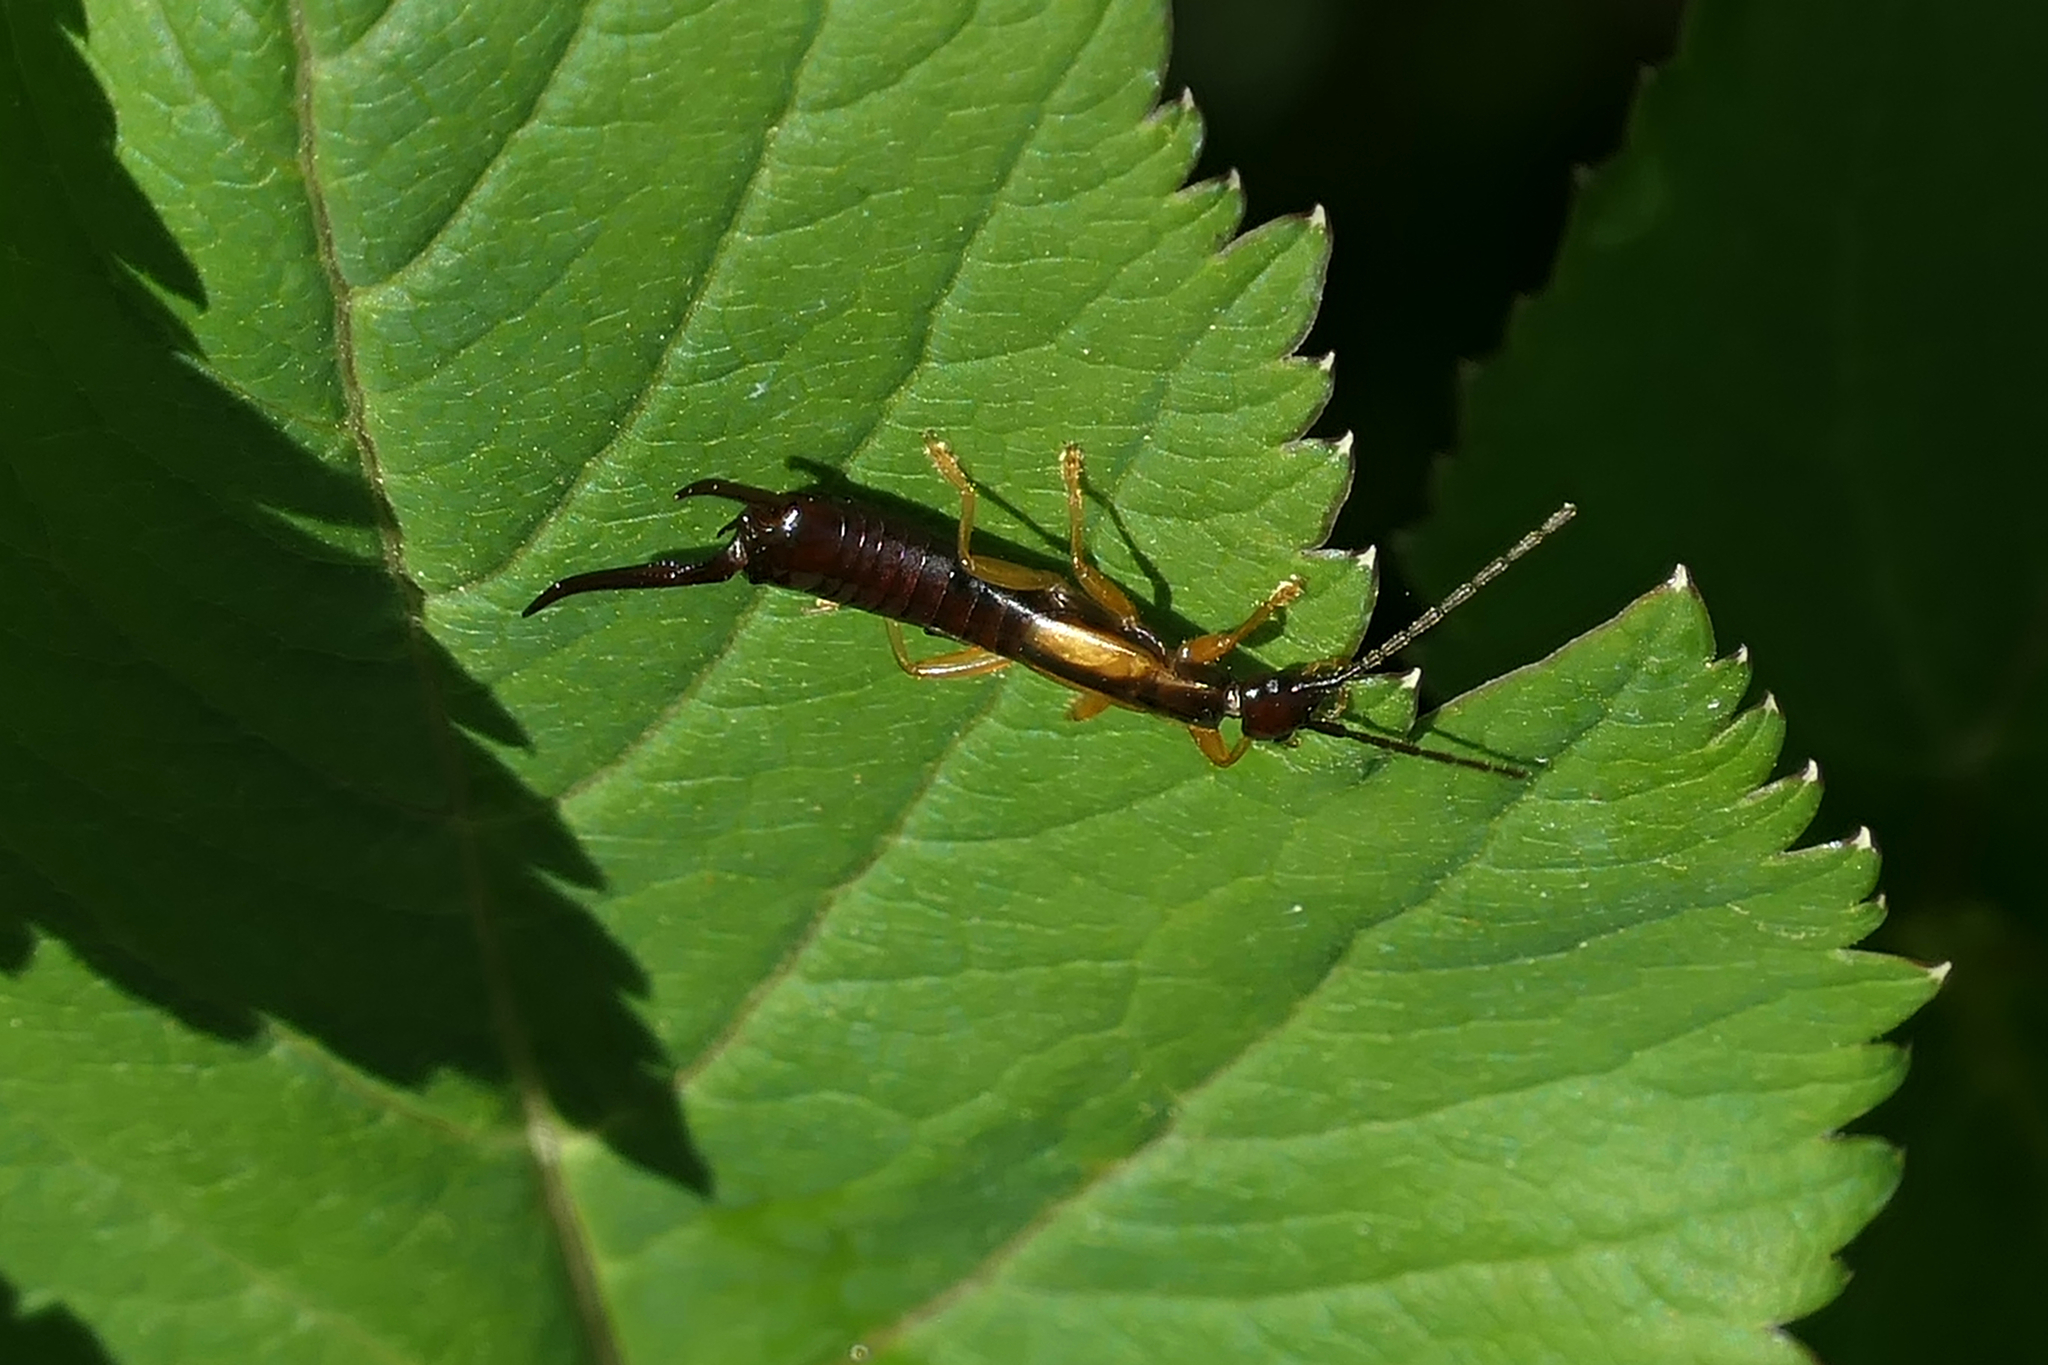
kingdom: Animalia
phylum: Arthropoda
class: Insecta
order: Dermaptera
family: Forficulidae
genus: Doru
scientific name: Doru aculeatum
